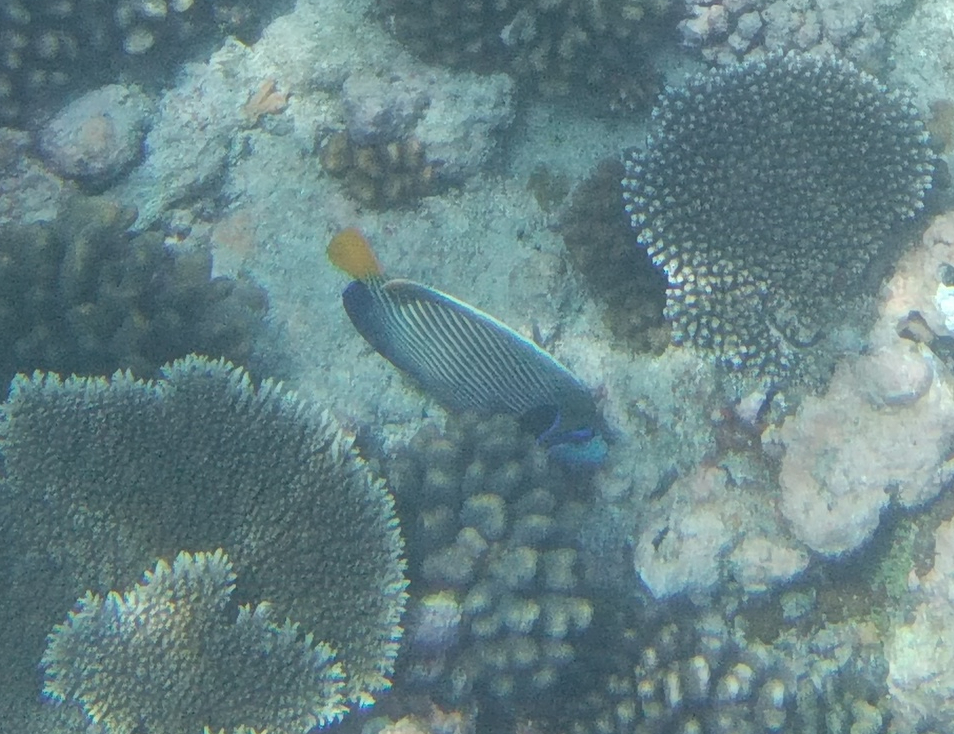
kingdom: Animalia
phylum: Chordata
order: Perciformes
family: Pomacanthidae
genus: Pomacanthus
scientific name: Pomacanthus imperator
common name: Emperor angelfish
